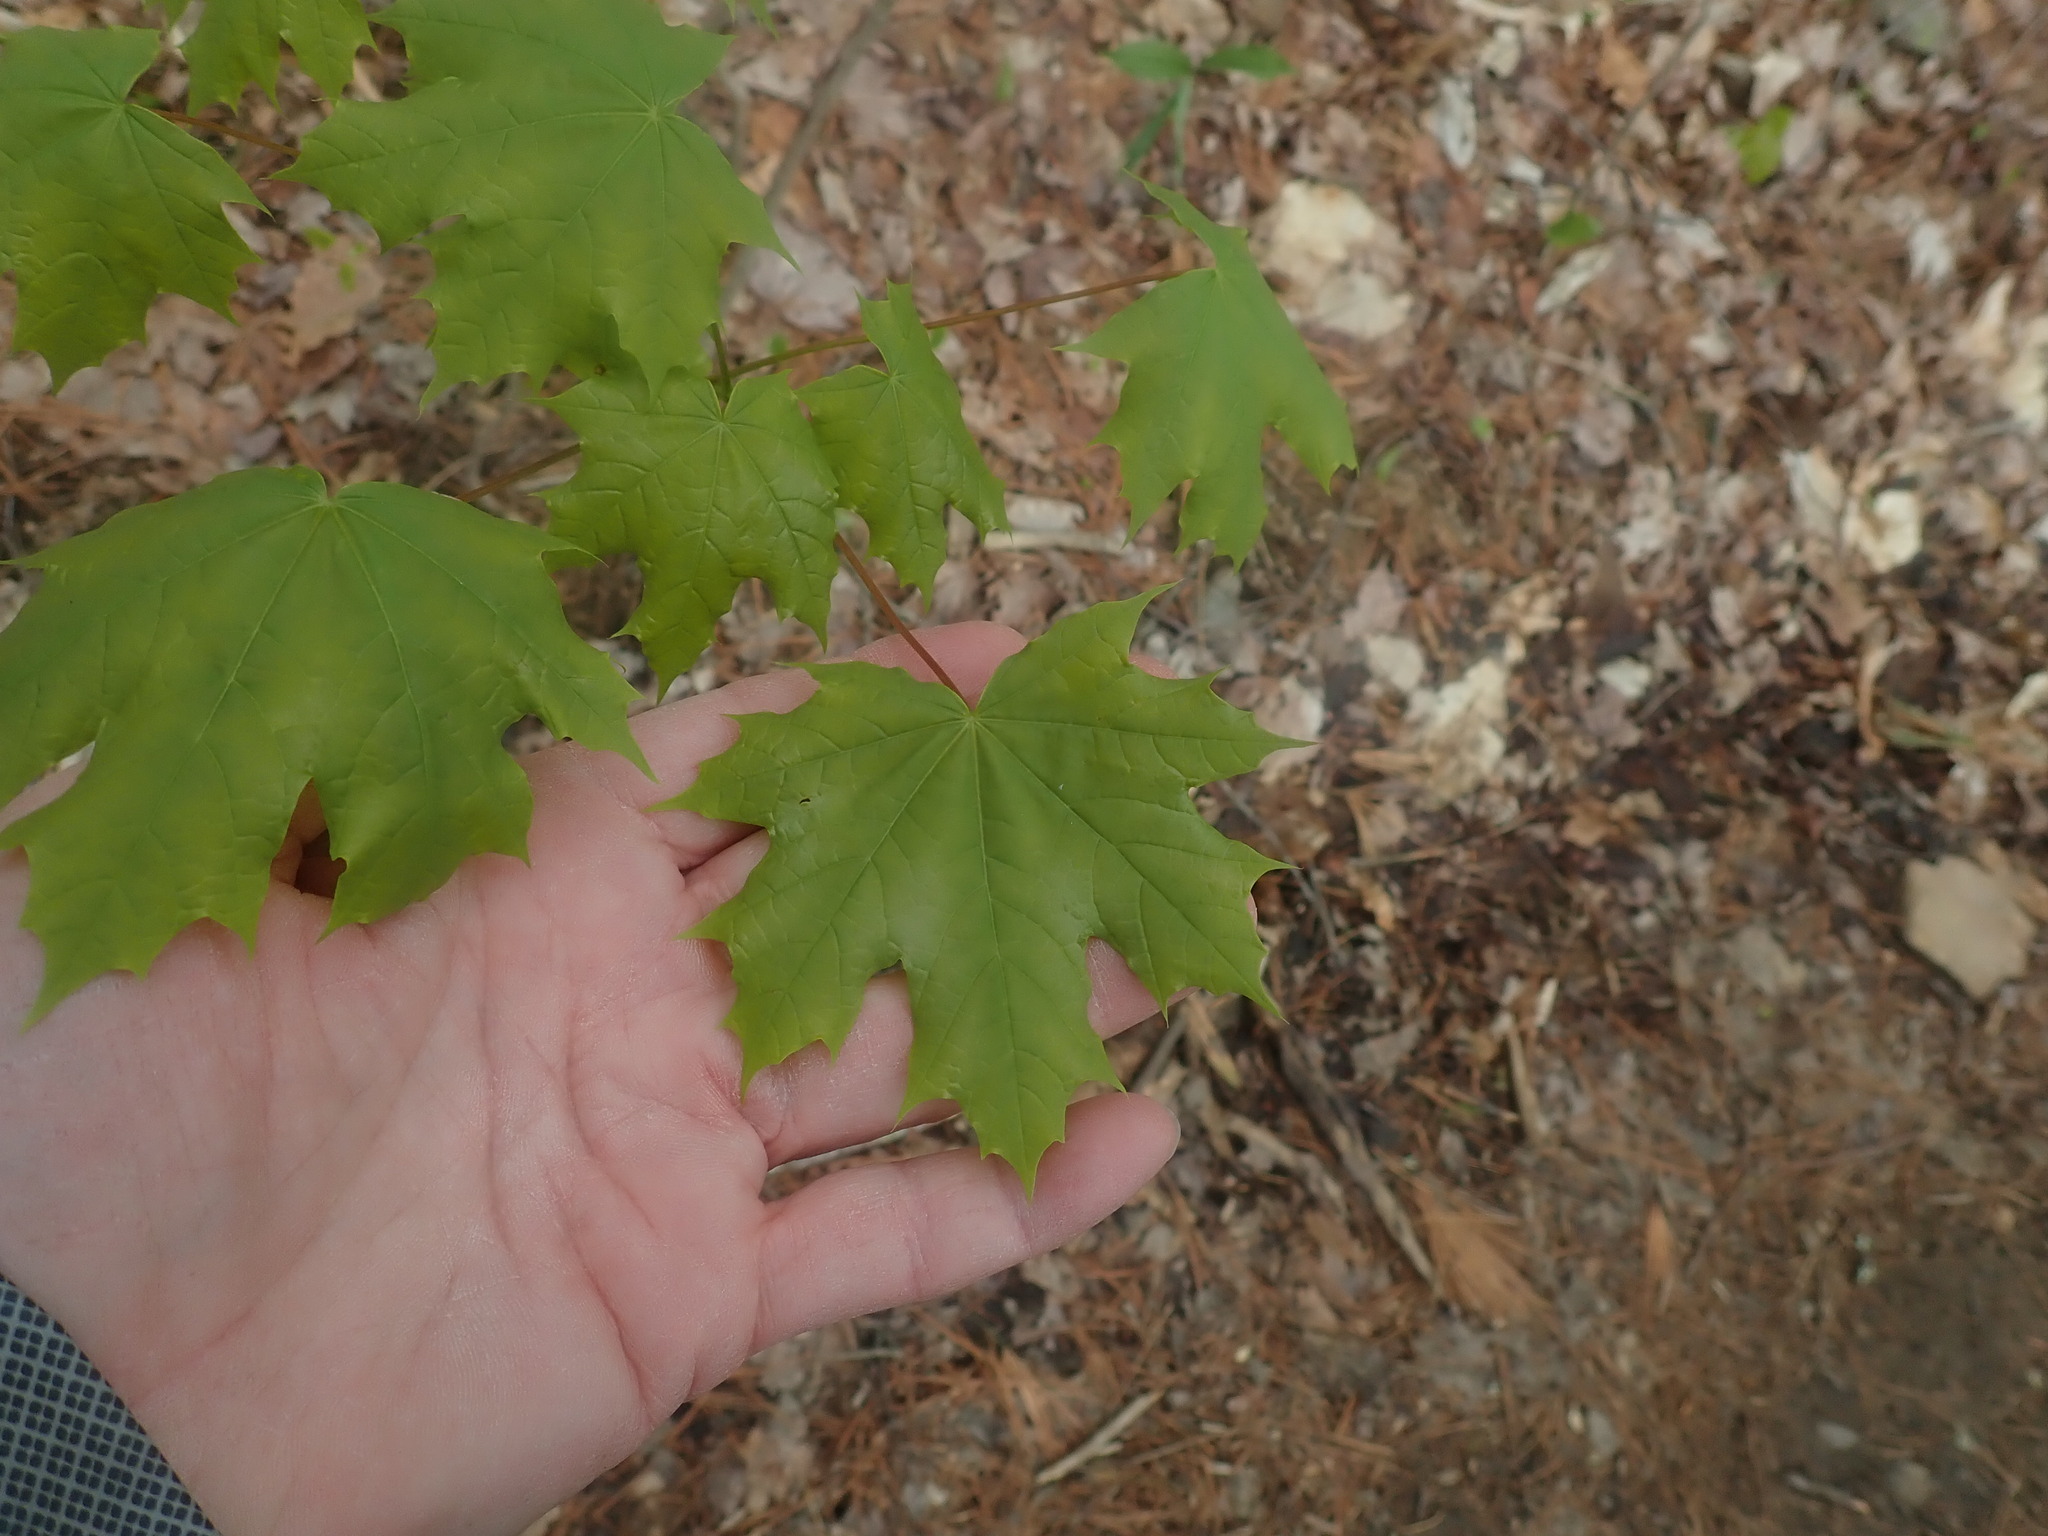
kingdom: Plantae
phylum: Tracheophyta
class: Magnoliopsida
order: Sapindales
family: Sapindaceae
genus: Acer
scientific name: Acer saccharum
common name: Sugar maple
